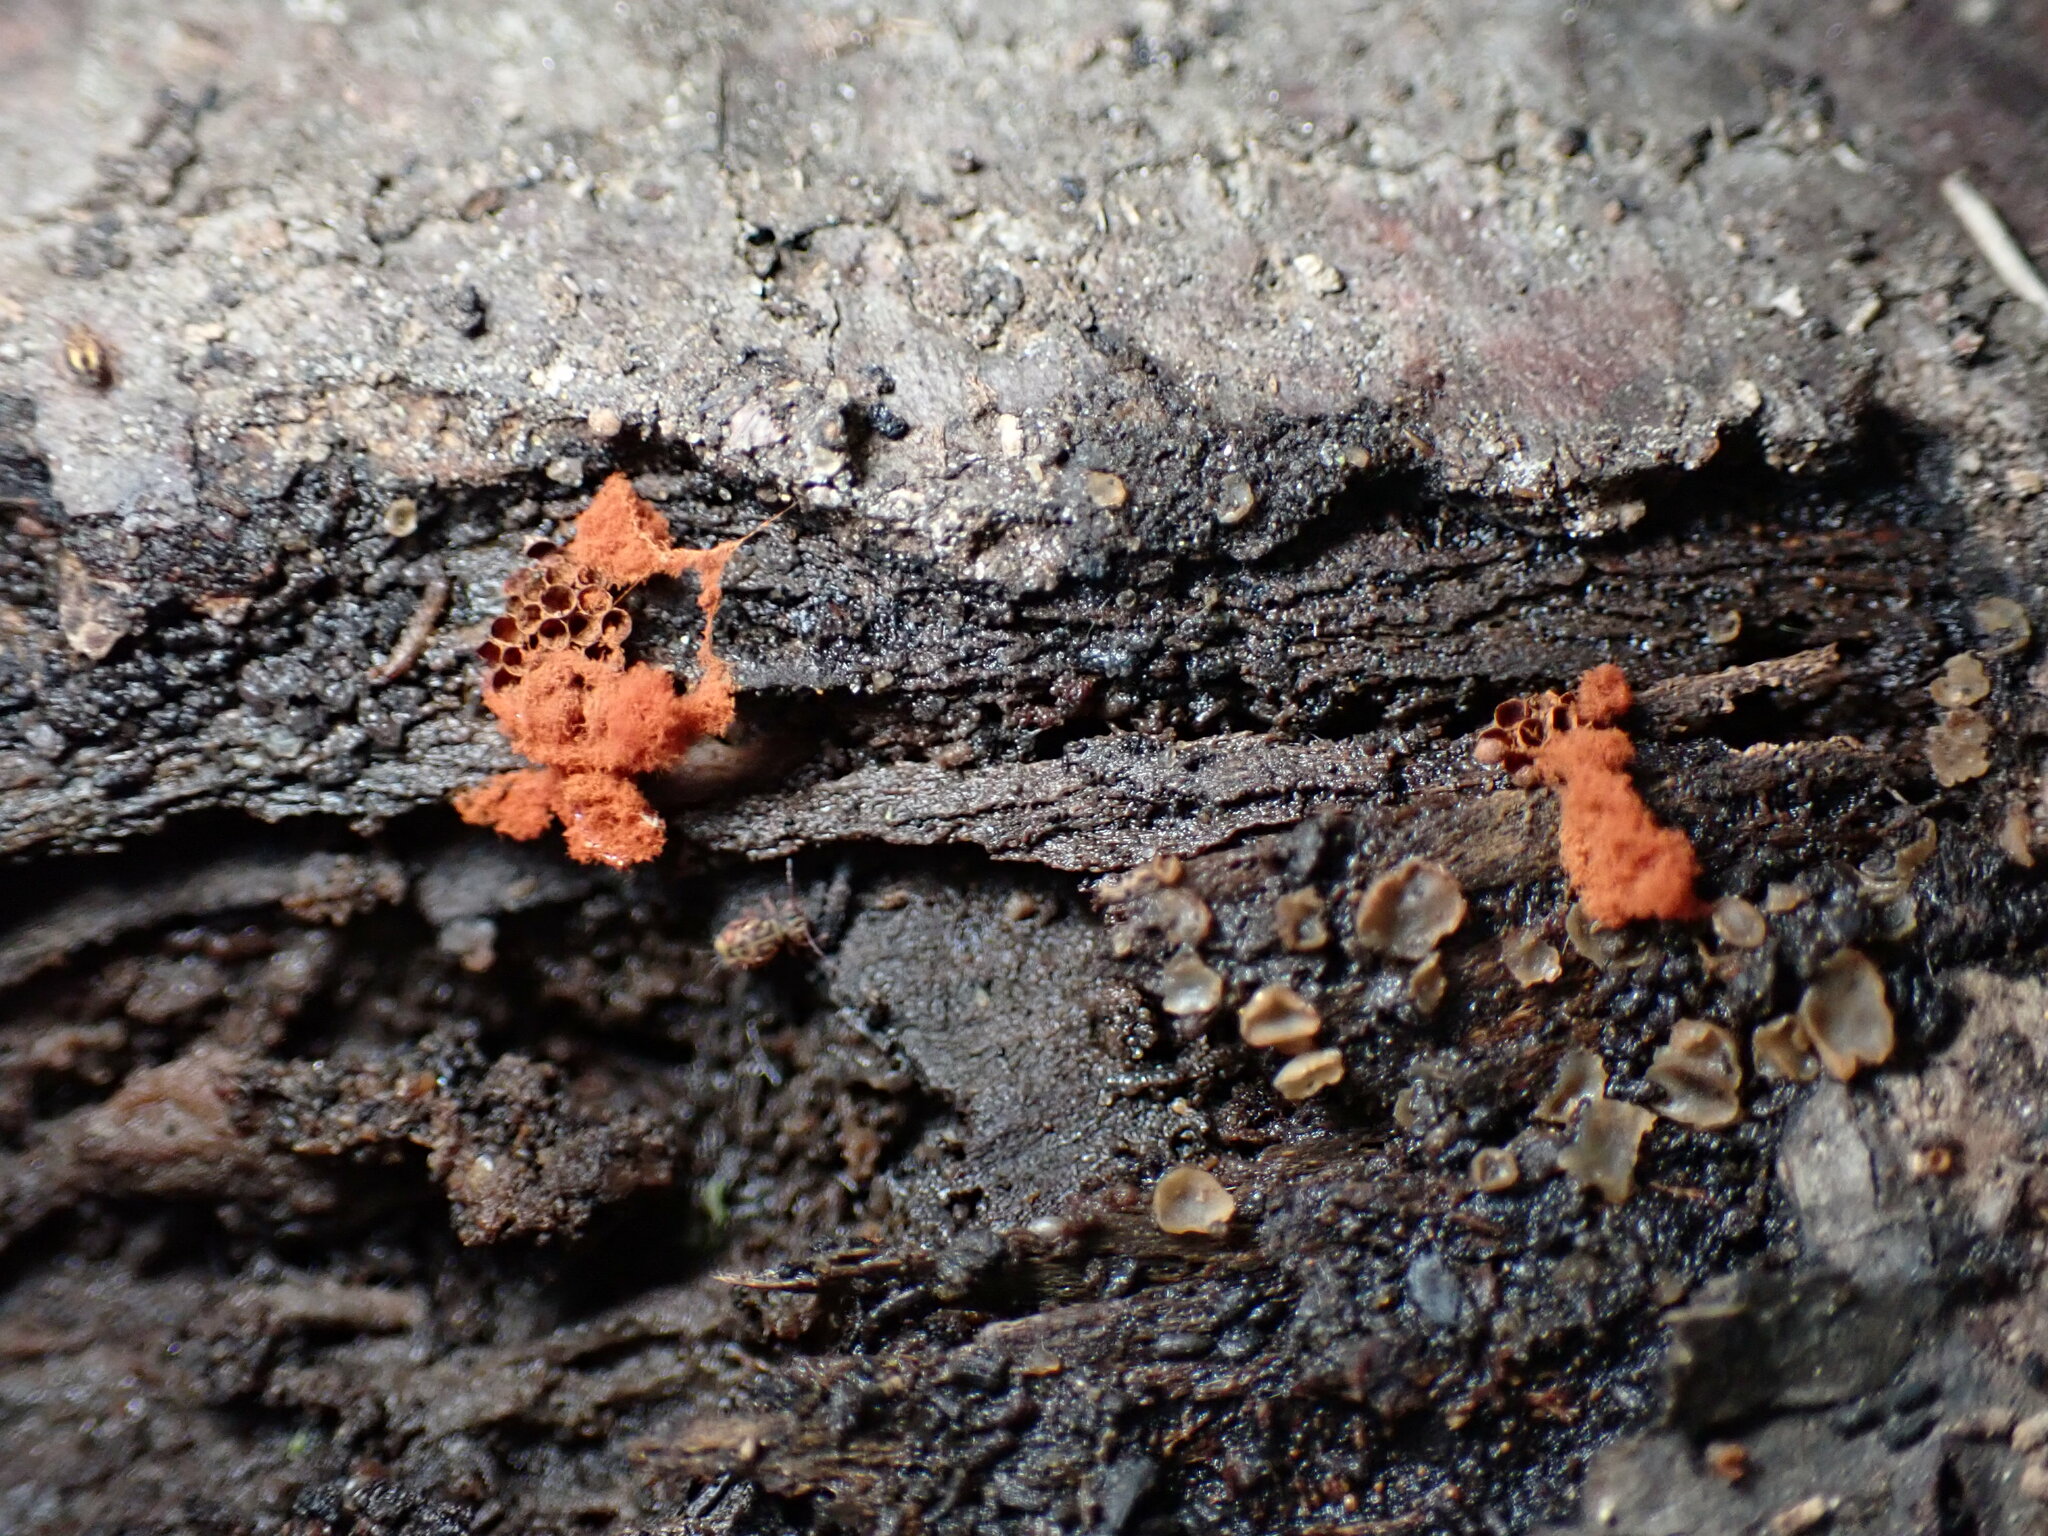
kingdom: Protozoa
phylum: Mycetozoa
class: Myxomycetes
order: Trichiales
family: Trichiaceae
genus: Metatrichia
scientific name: Metatrichia vesparia
